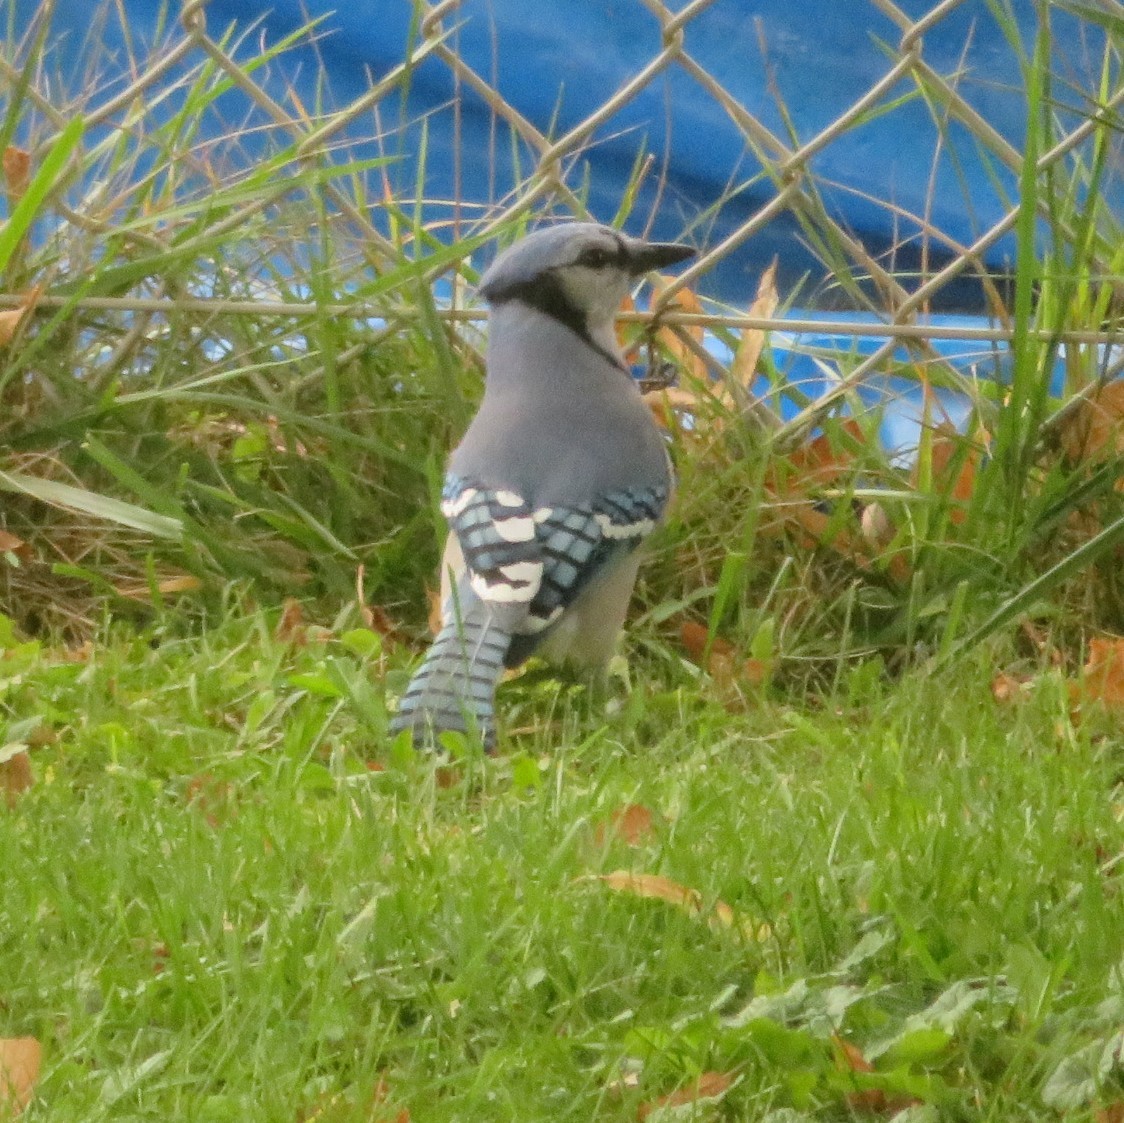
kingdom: Animalia
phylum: Chordata
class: Aves
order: Passeriformes
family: Corvidae
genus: Cyanocitta
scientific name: Cyanocitta cristata
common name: Blue jay
